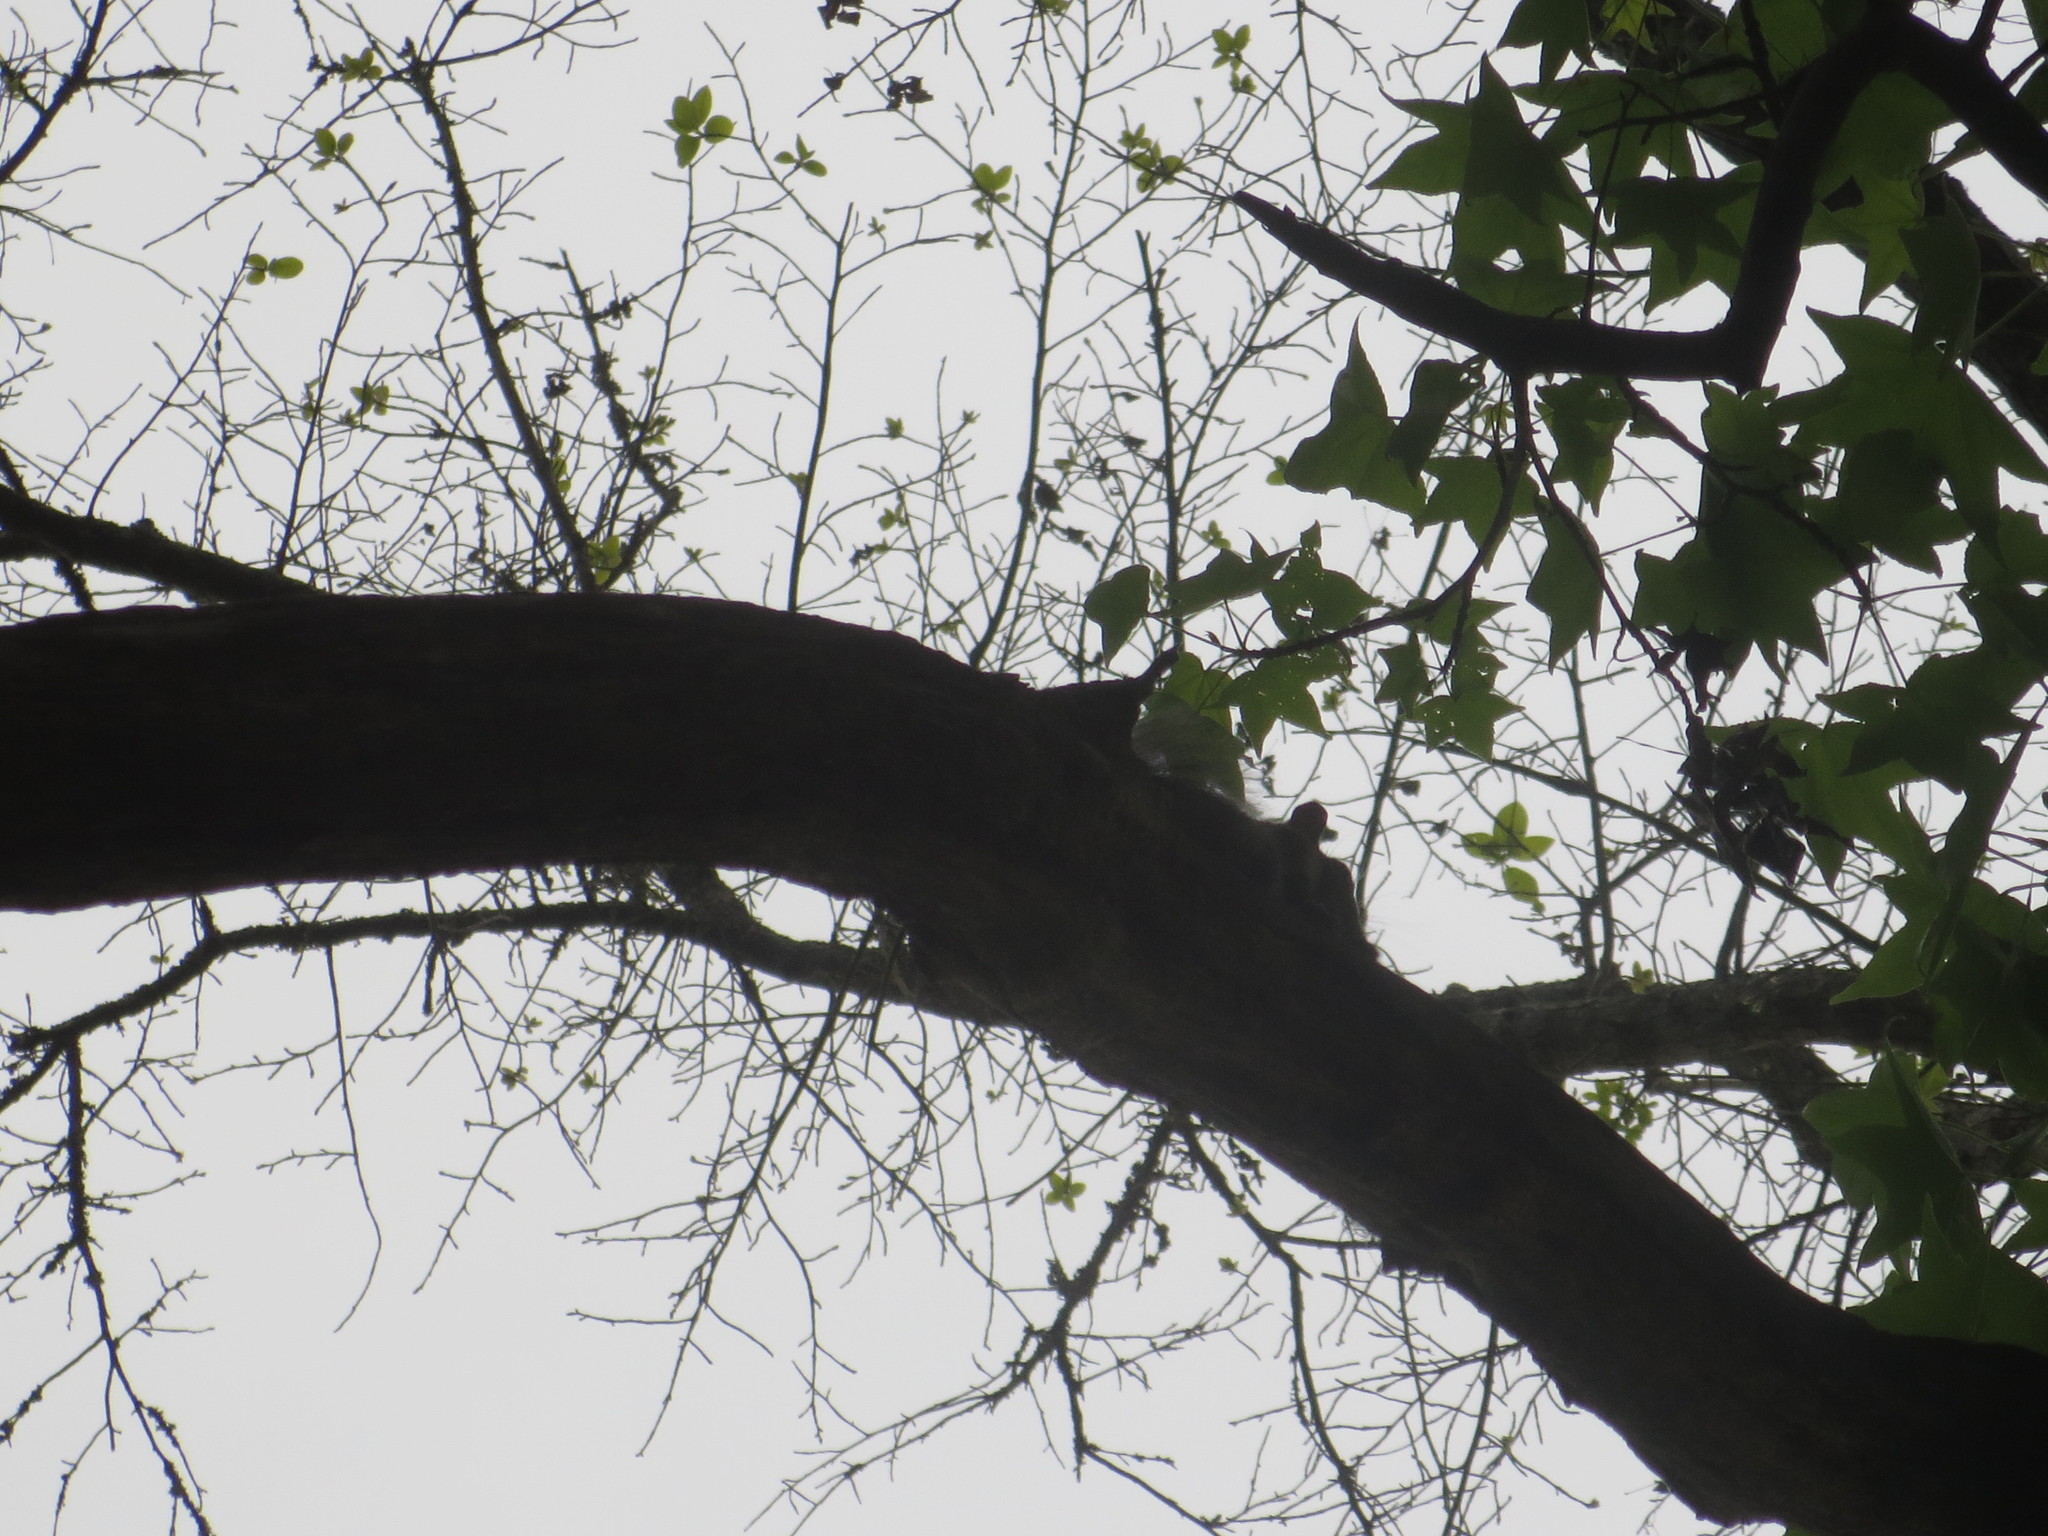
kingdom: Animalia
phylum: Chordata
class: Mammalia
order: Rodentia
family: Sciuridae
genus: Sciurus
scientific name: Sciurus carolinensis
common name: Eastern gray squirrel
